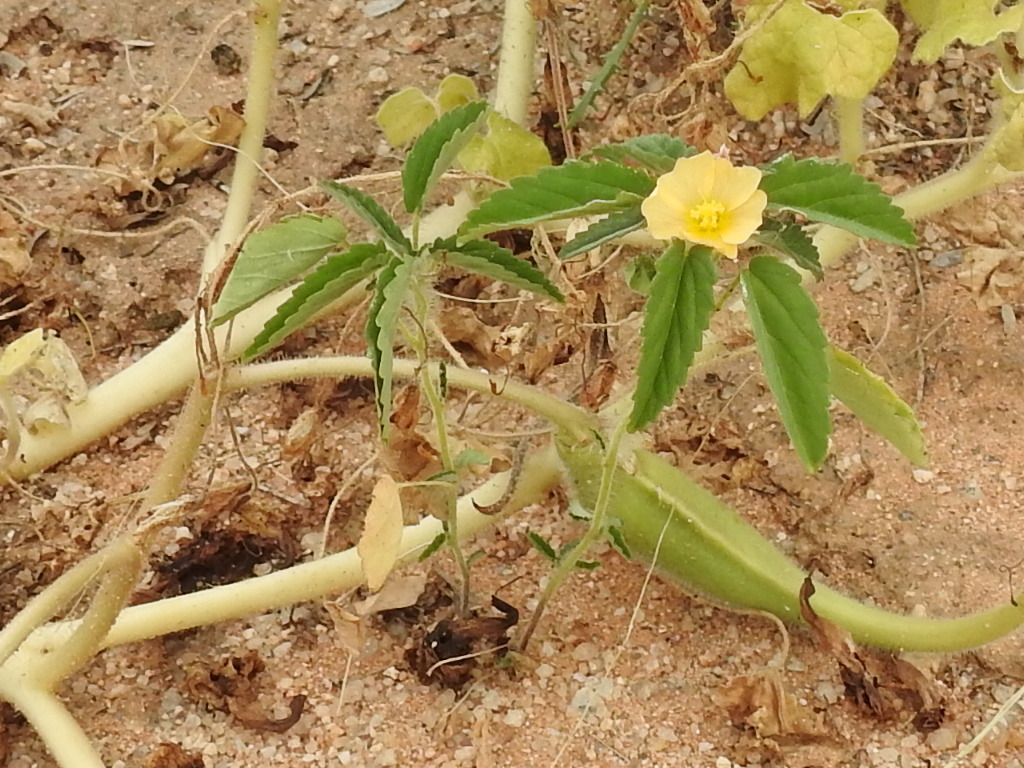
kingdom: Plantae
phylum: Tracheophyta
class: Magnoliopsida
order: Malvales
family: Malvaceae
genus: Sida
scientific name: Sida abutilifolia
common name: Spreading fanpetals
